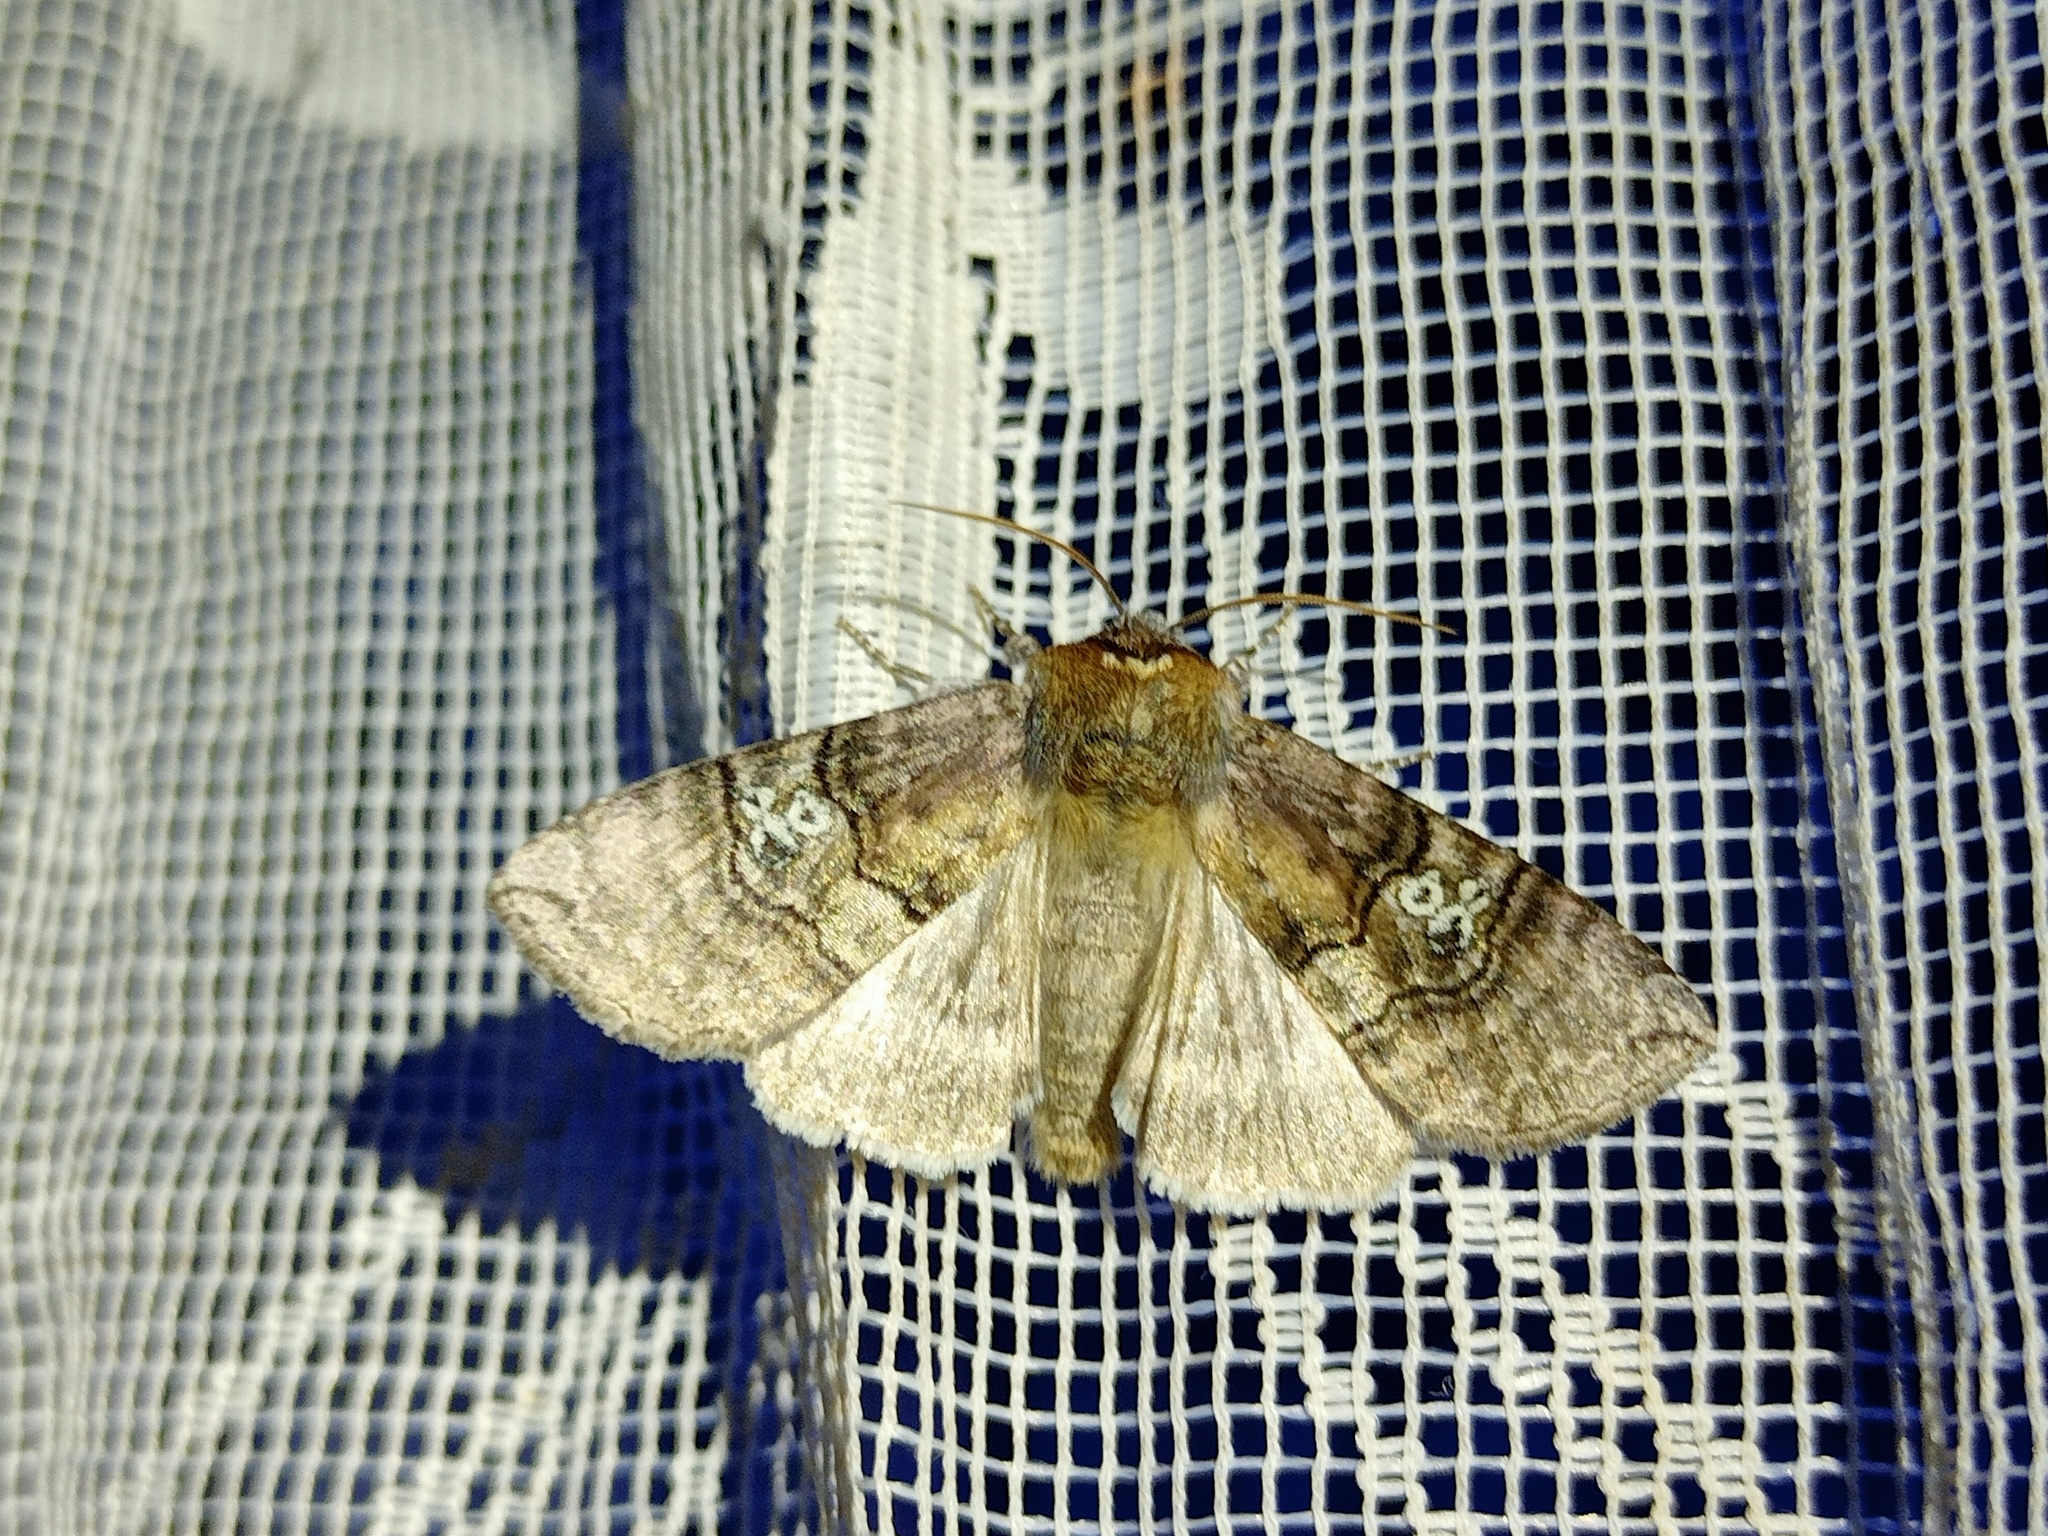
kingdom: Animalia
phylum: Arthropoda
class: Insecta
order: Lepidoptera
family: Drepanidae
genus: Tethea
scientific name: Tethea ocularis
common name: Figure of eighty
